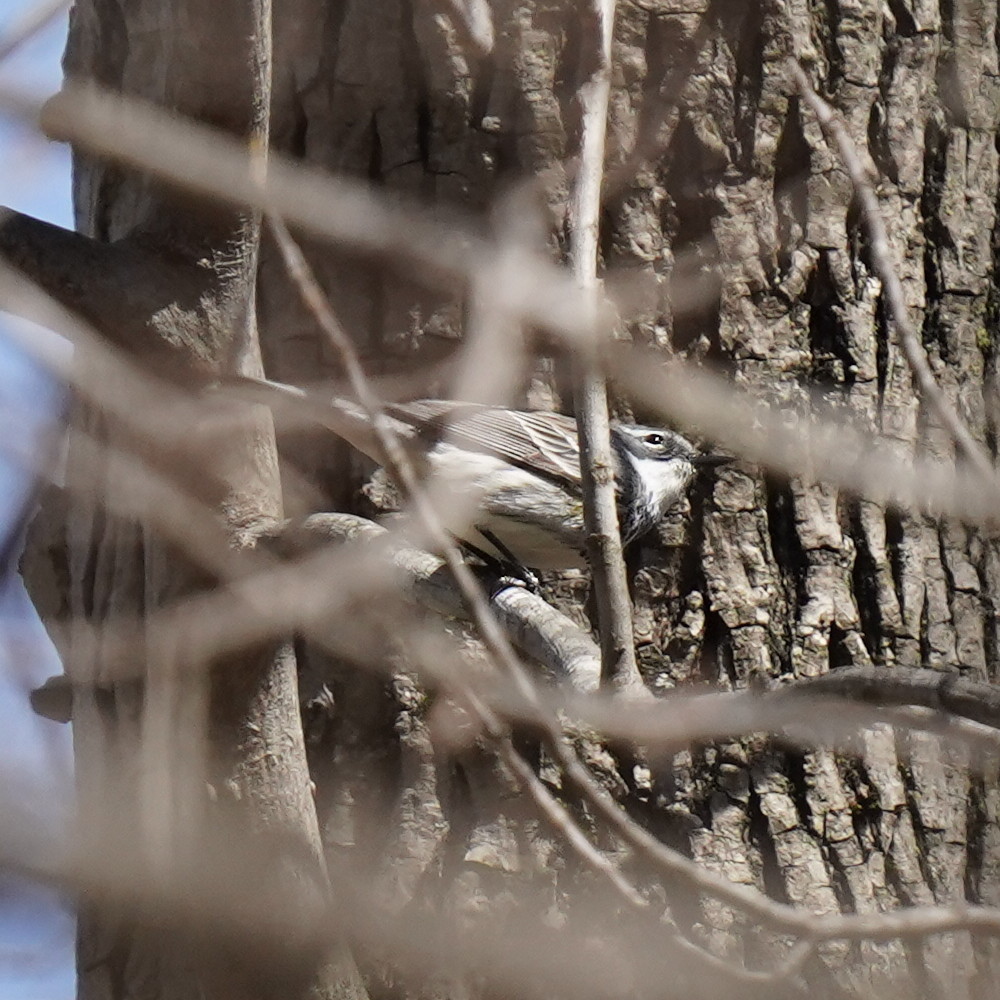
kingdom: Animalia
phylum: Chordata
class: Aves
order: Passeriformes
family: Parulidae
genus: Setophaga
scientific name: Setophaga coronata
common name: Myrtle warbler
